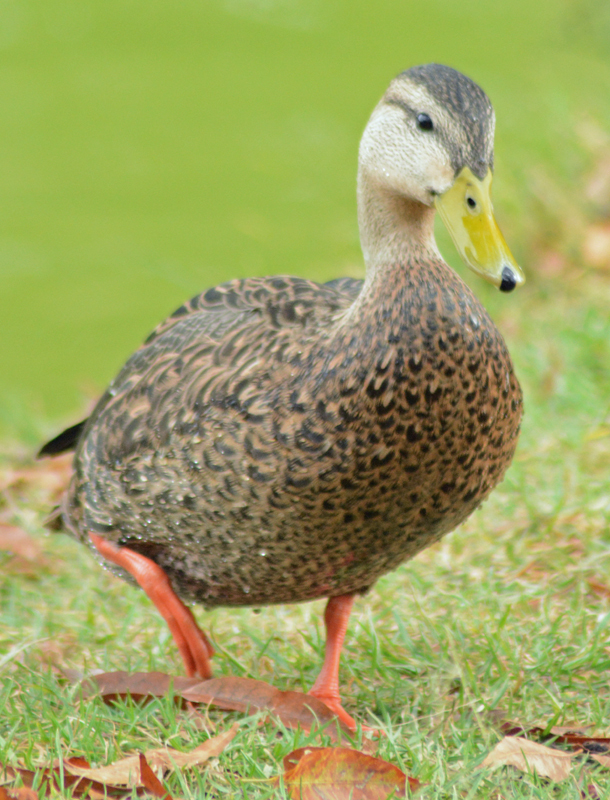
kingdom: Animalia
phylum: Chordata
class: Aves
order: Anseriformes
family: Anatidae
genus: Anas
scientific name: Anas diazi
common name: Mexican duck
